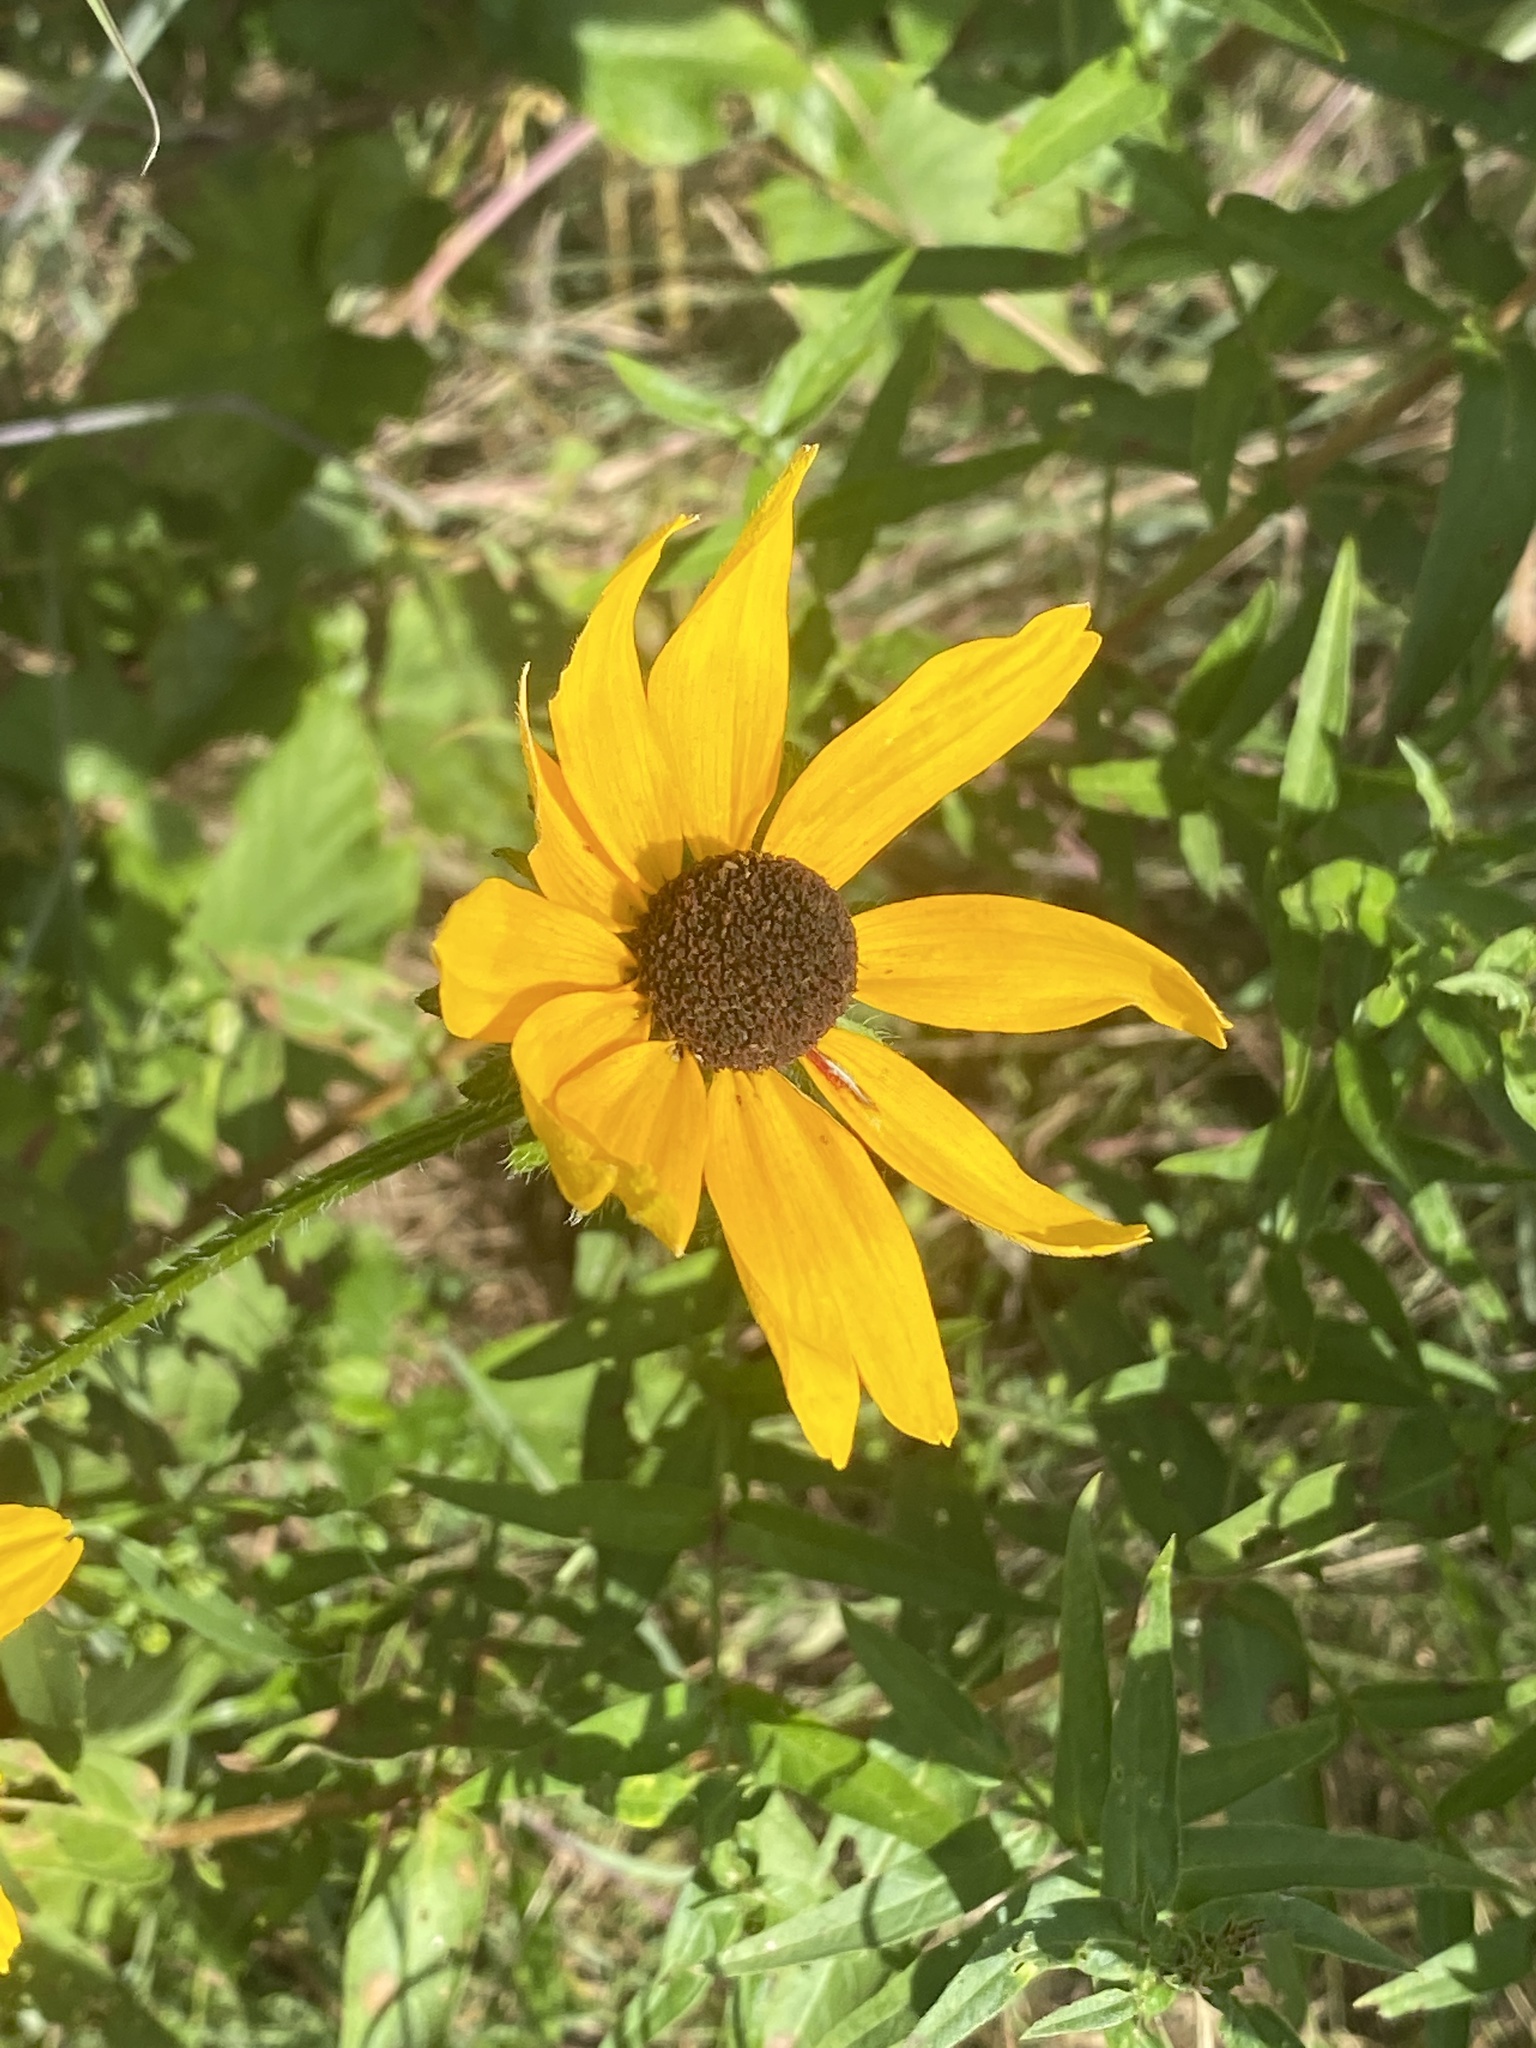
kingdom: Plantae
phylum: Tracheophyta
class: Magnoliopsida
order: Asterales
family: Asteraceae
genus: Rudbeckia
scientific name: Rudbeckia hirta
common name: Black-eyed-susan
